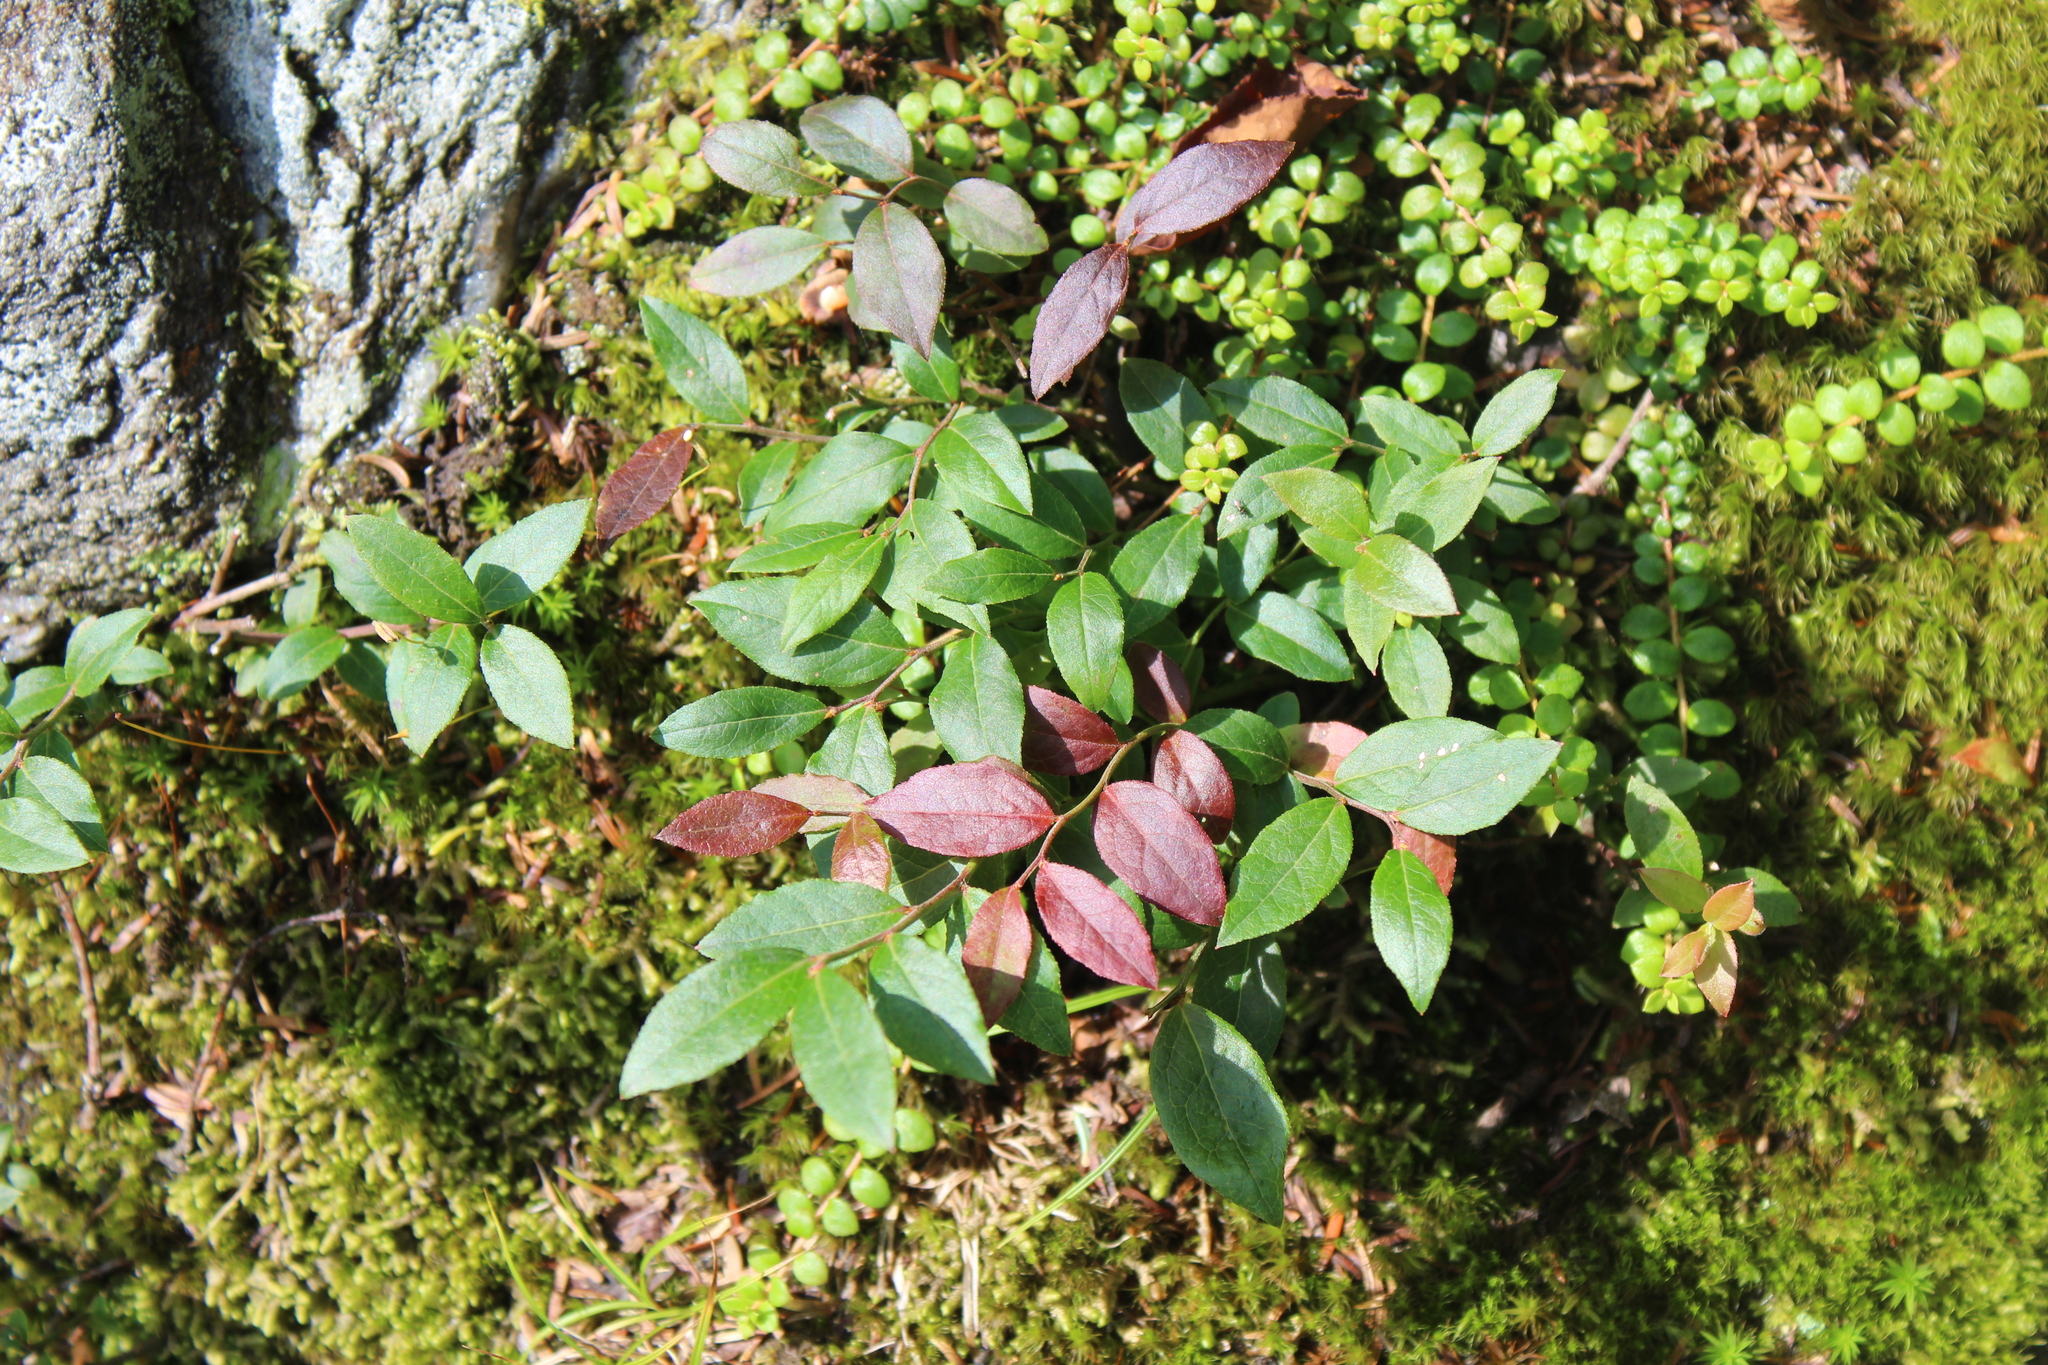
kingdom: Plantae
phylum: Tracheophyta
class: Magnoliopsida
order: Ericales
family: Ericaceae
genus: Vaccinium
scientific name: Vaccinium angustifolium
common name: Early lowbush blueberry
